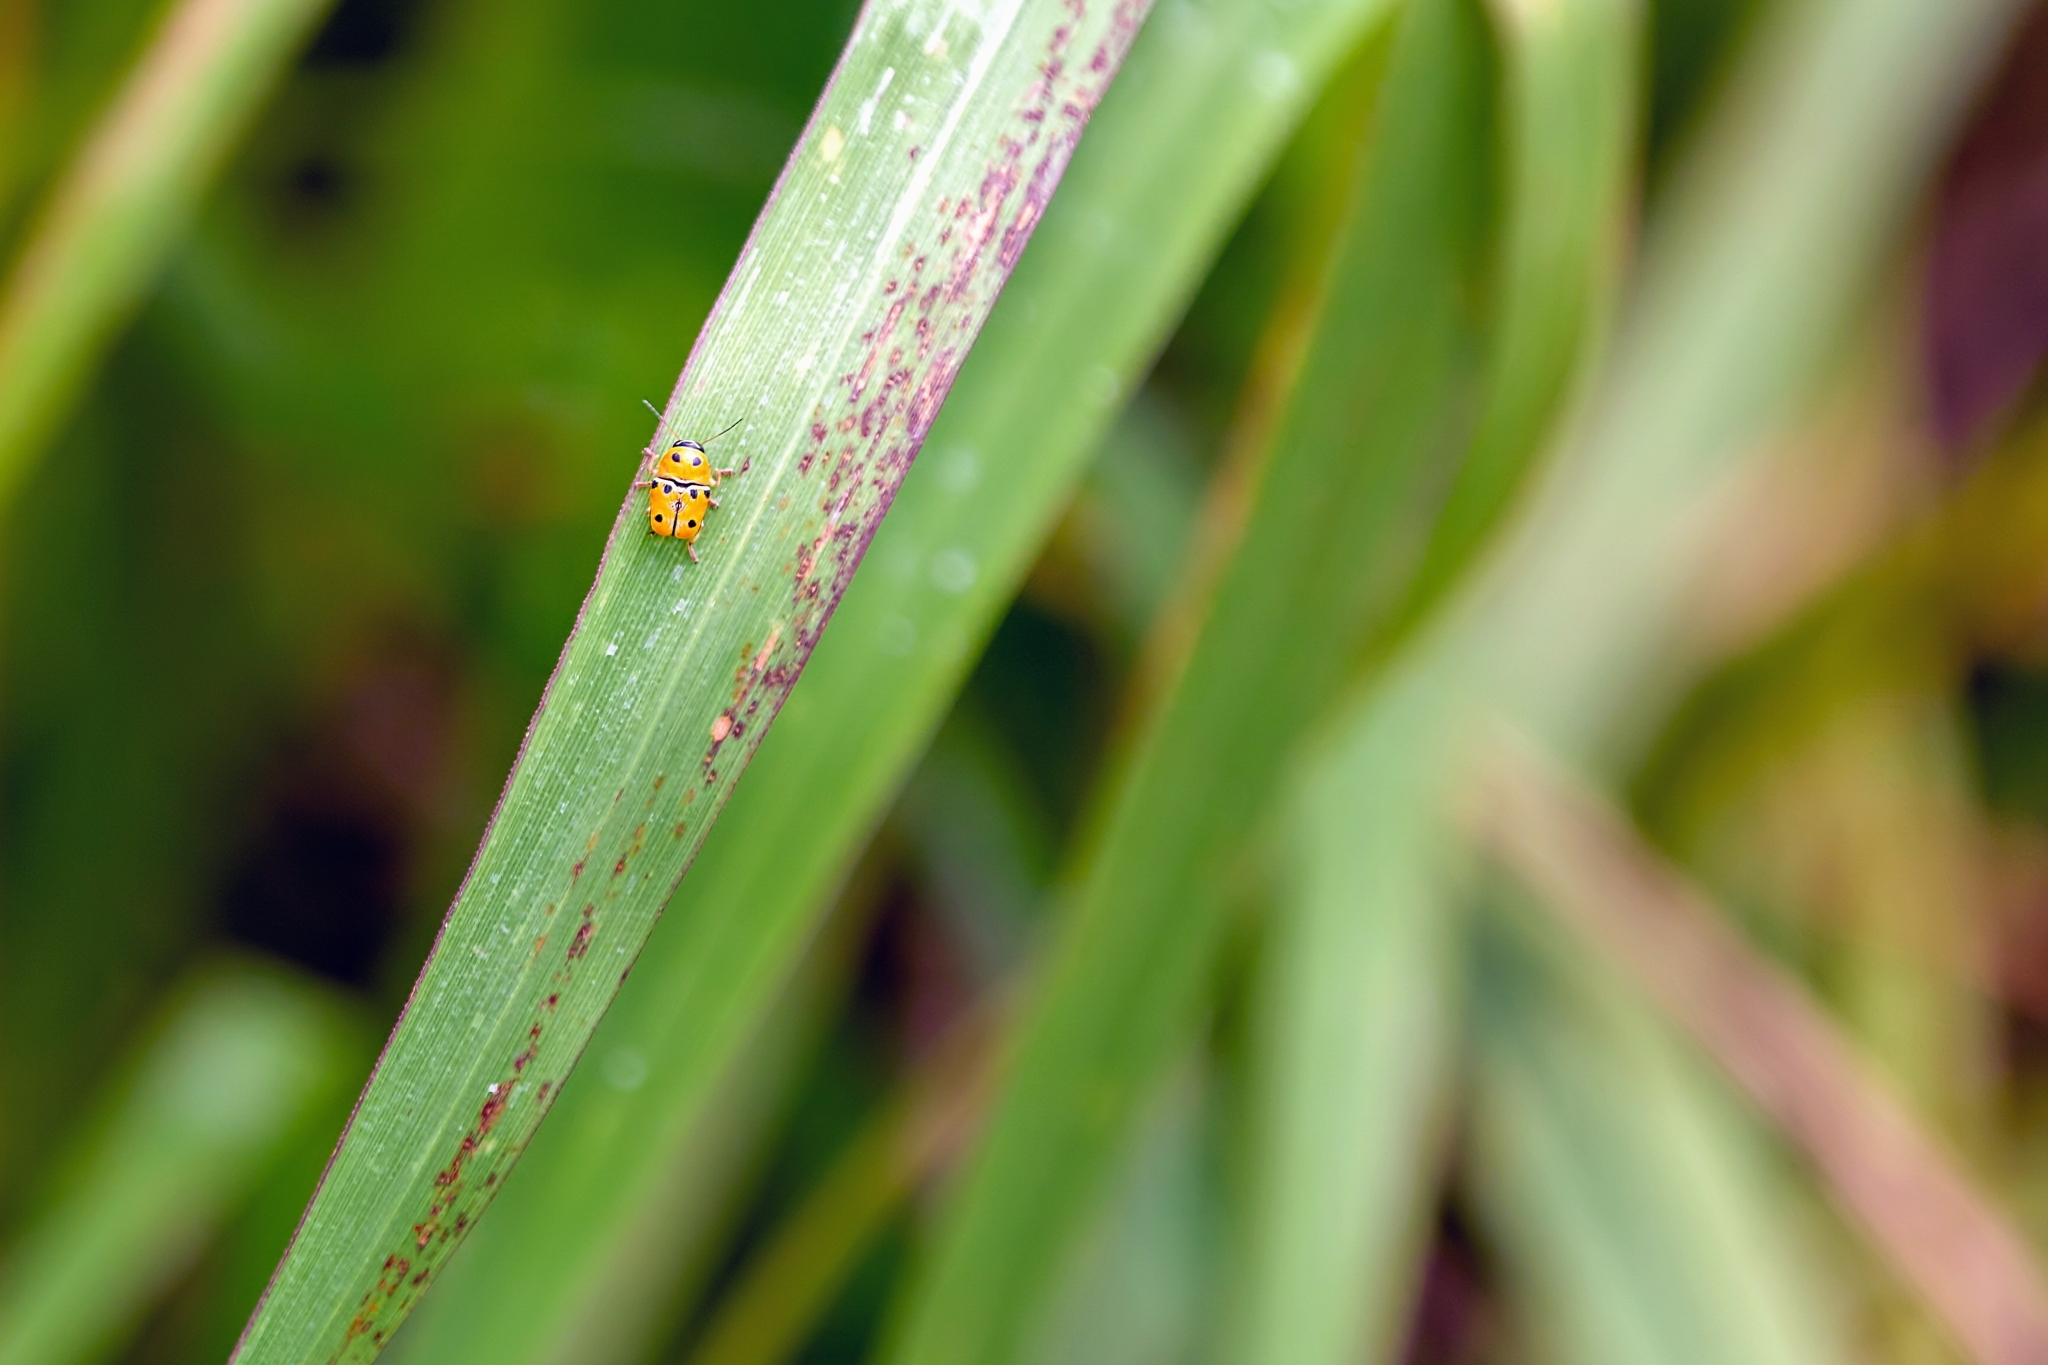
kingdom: Animalia
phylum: Arthropoda
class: Insecta
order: Coleoptera
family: Chrysomelidae
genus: Griburius
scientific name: Griburius larvatus
